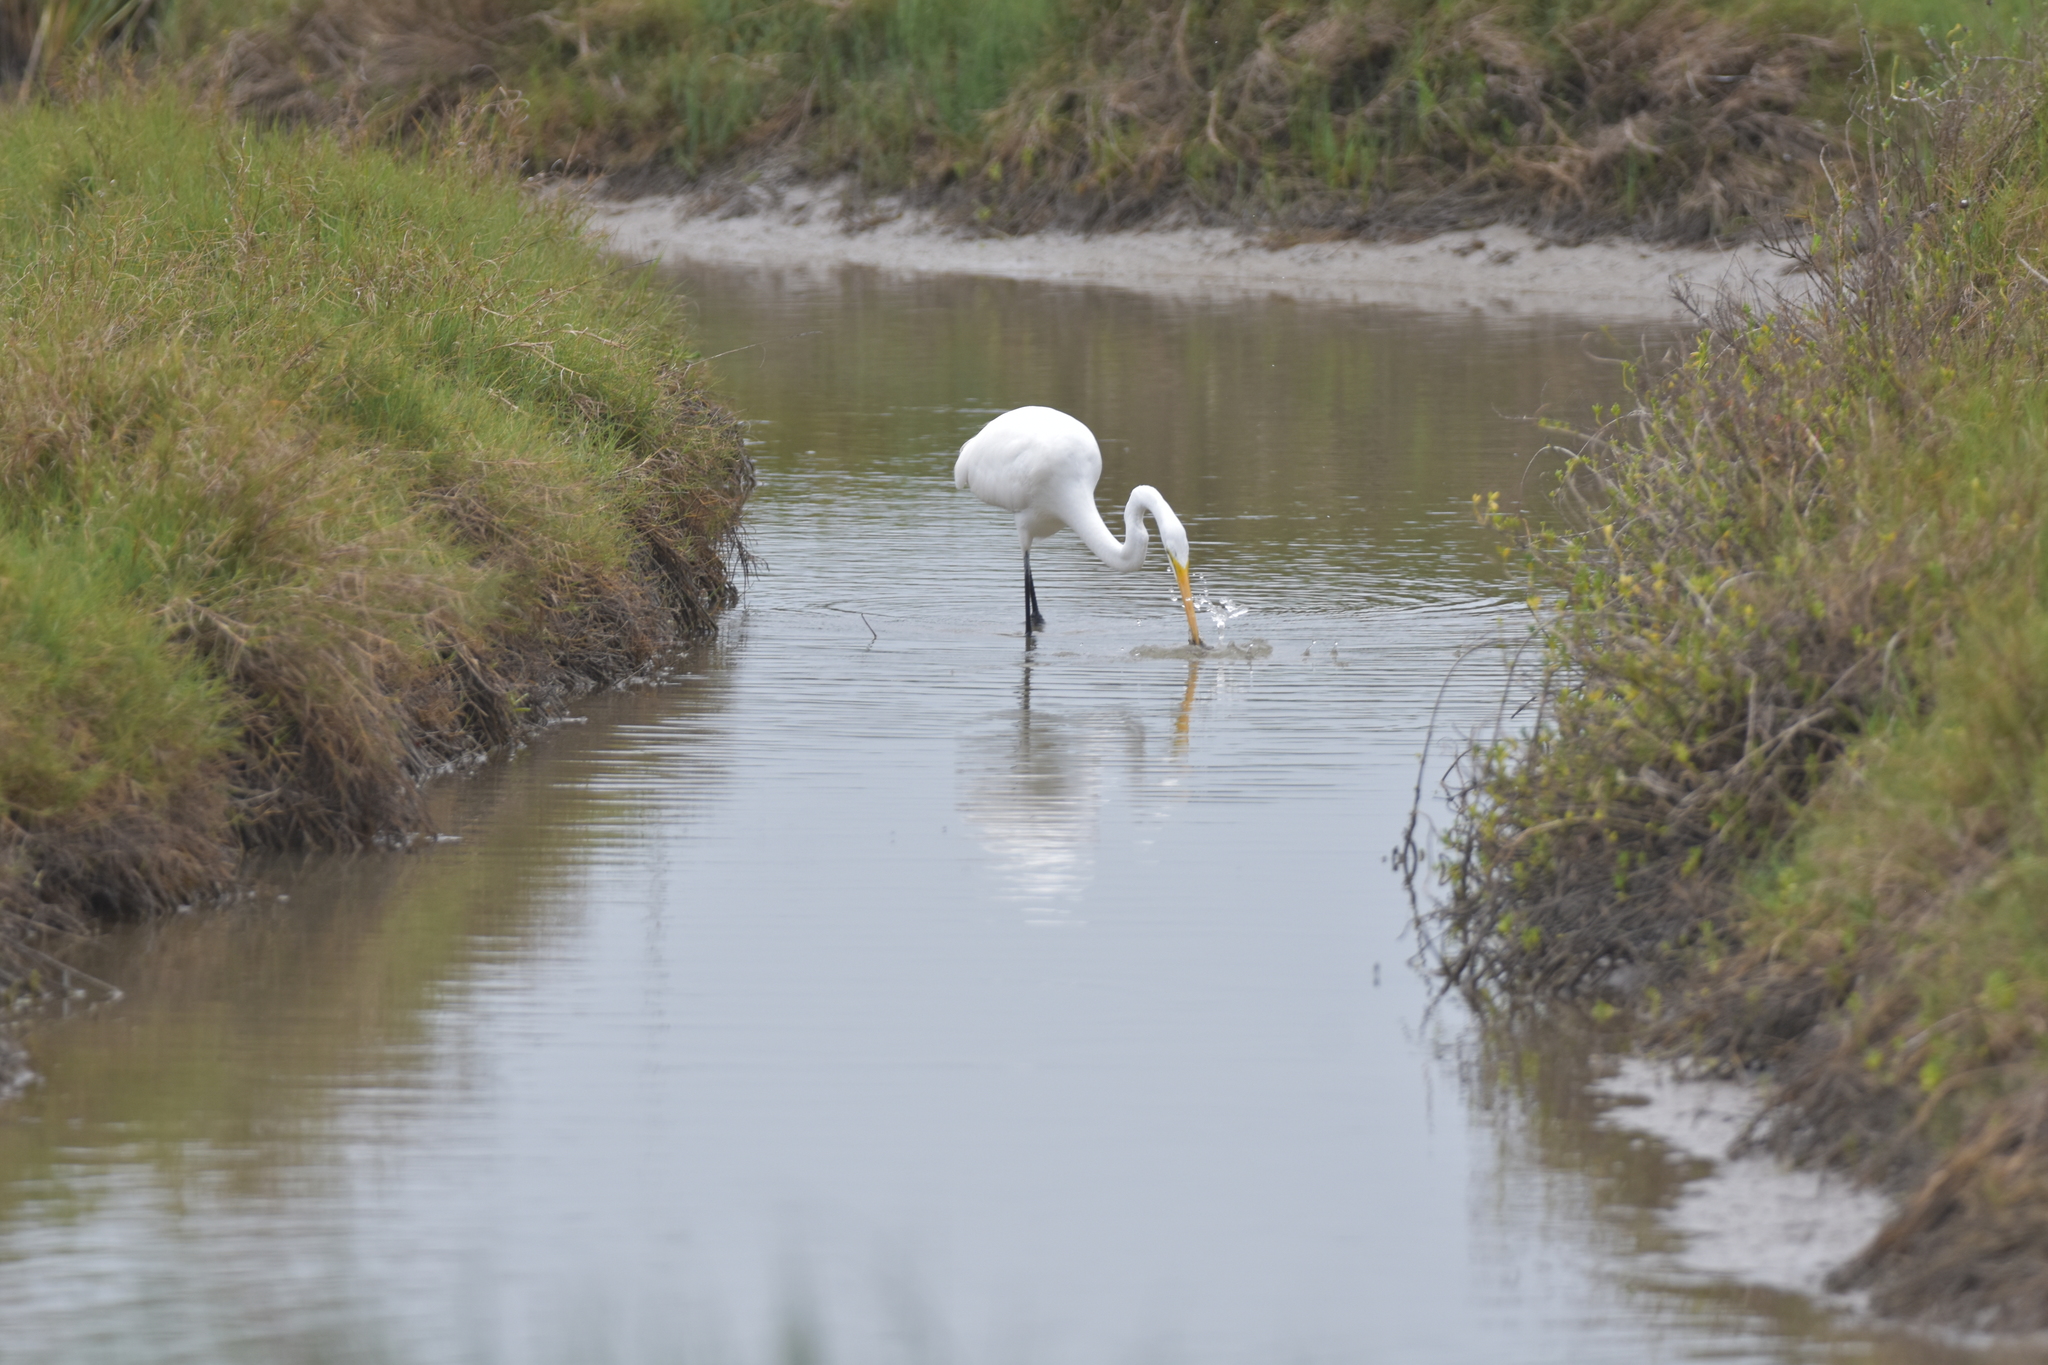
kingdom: Animalia
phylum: Chordata
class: Aves
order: Pelecaniformes
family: Ardeidae
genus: Ardea
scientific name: Ardea alba
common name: Great egret
